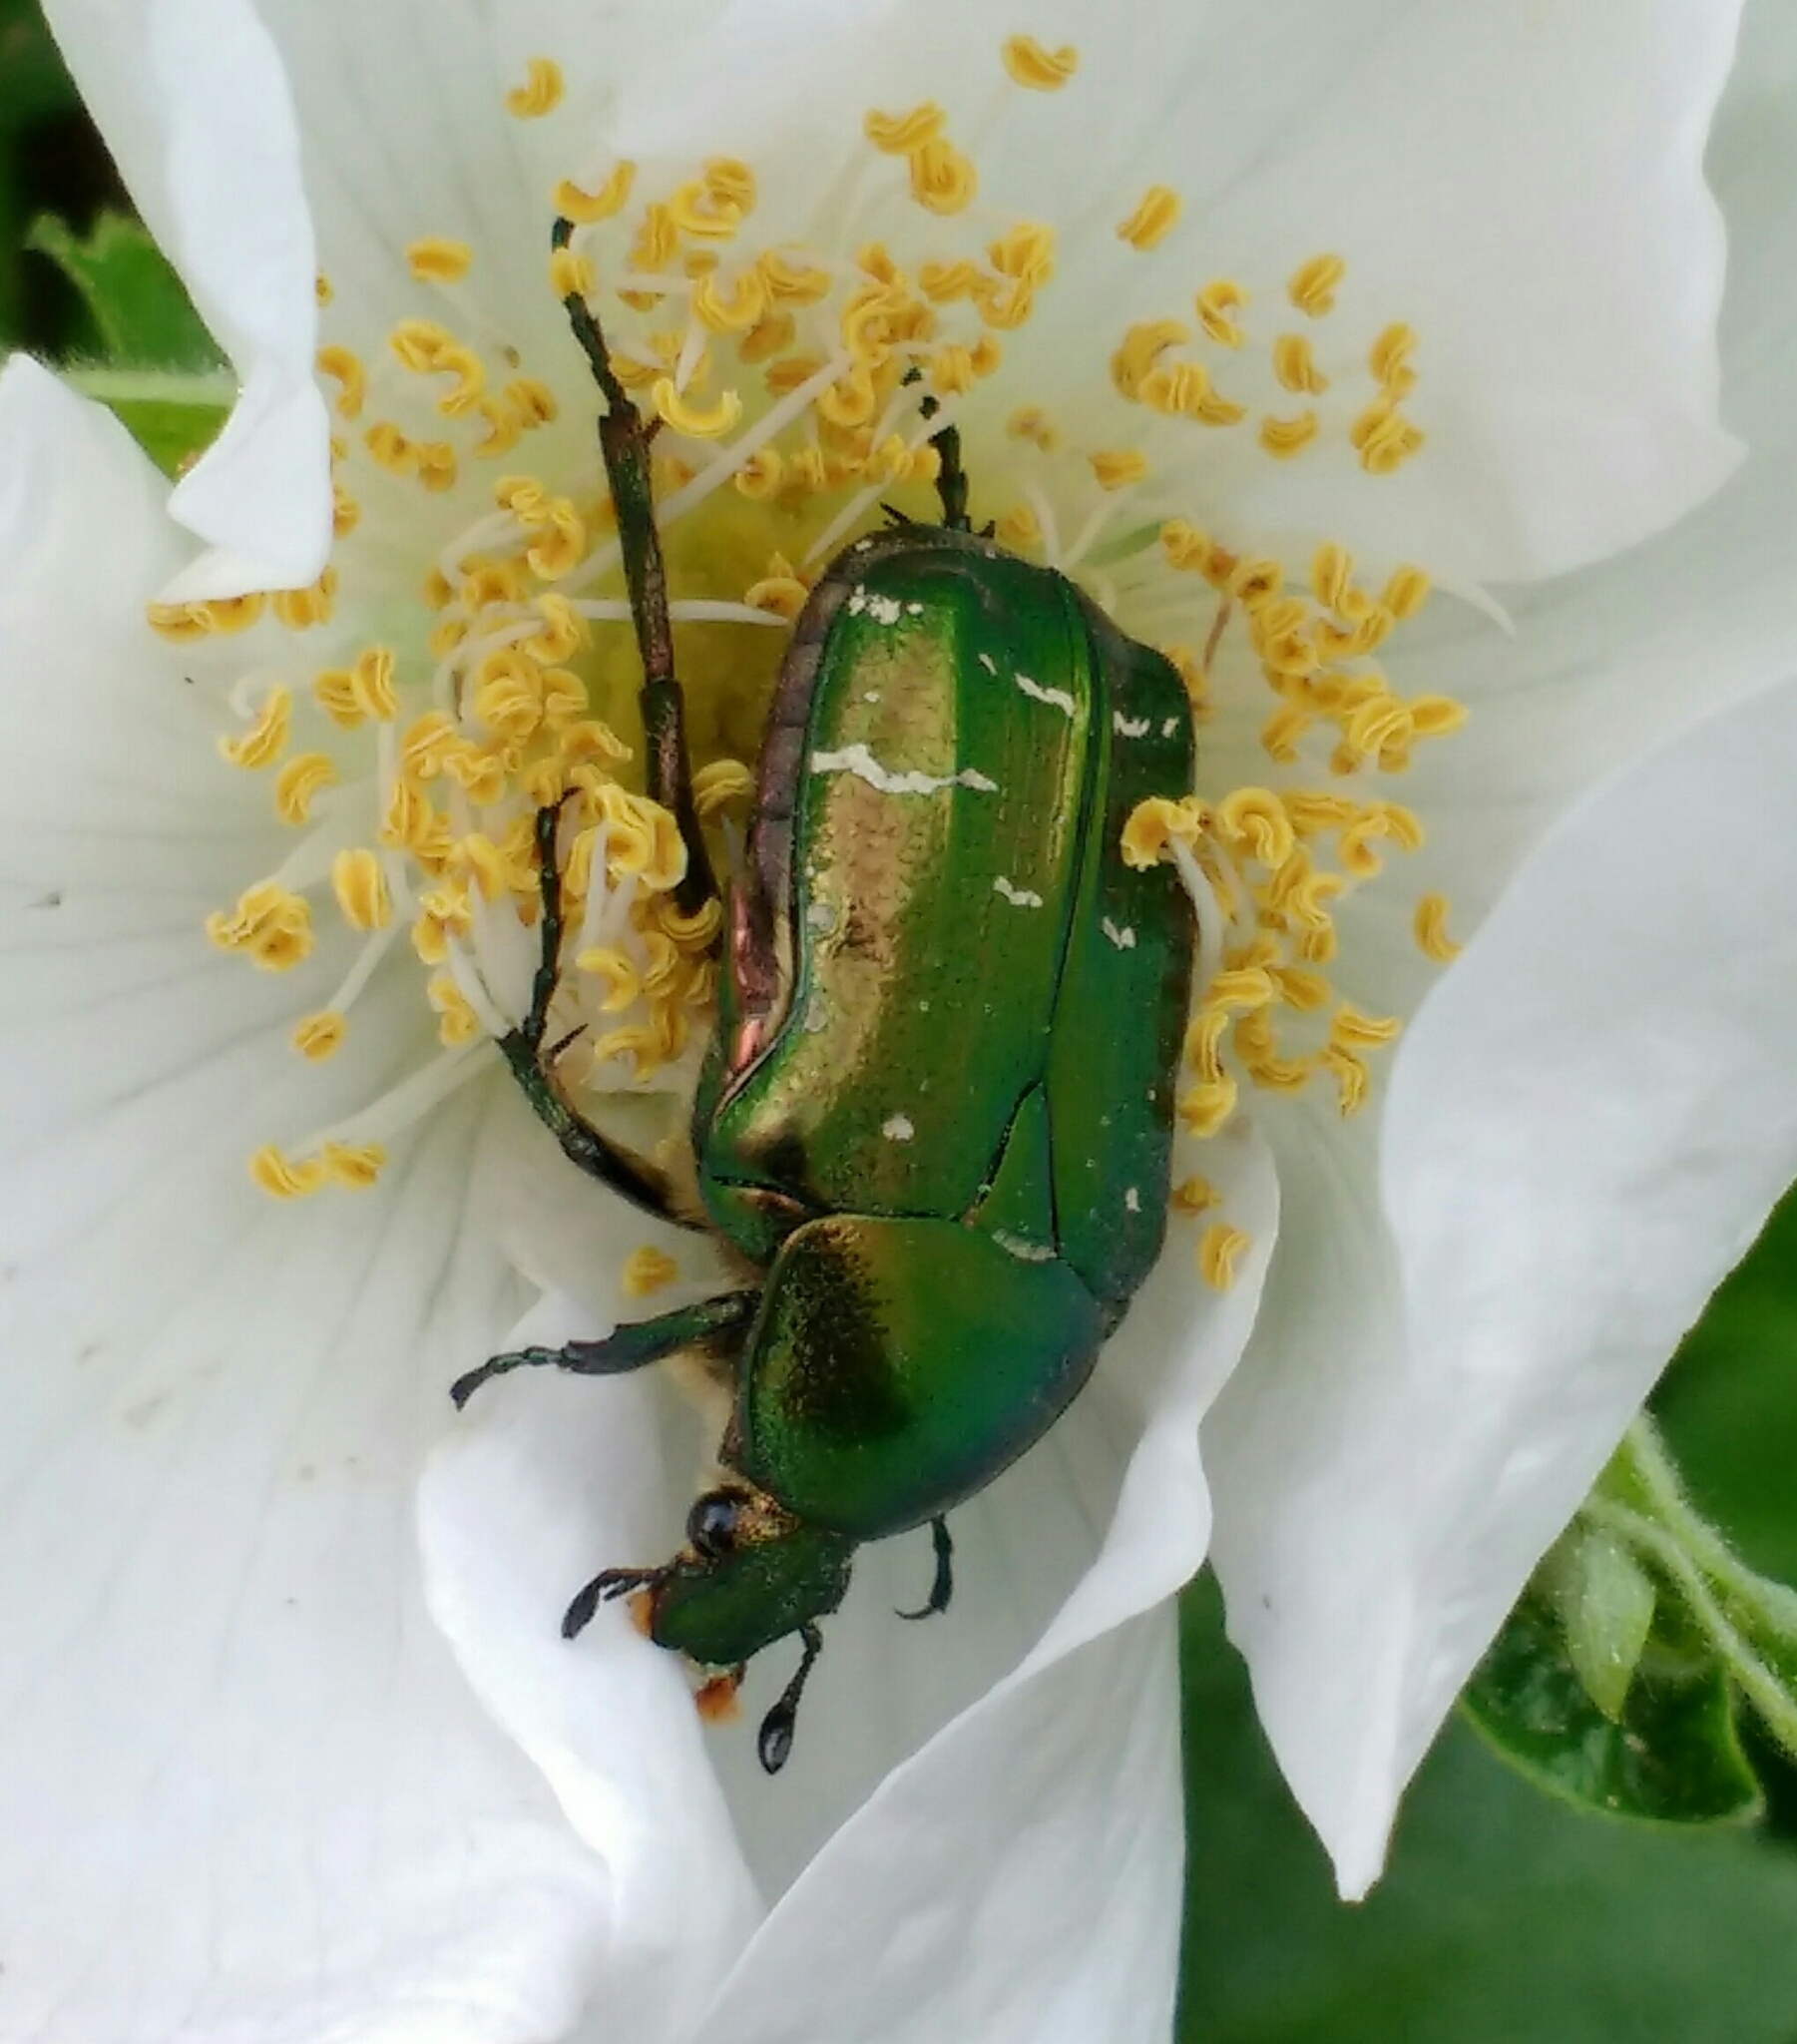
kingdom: Animalia
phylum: Arthropoda
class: Insecta
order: Coleoptera
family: Scarabaeidae
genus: Cetonia
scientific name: Cetonia aurata
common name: Rose chafer
